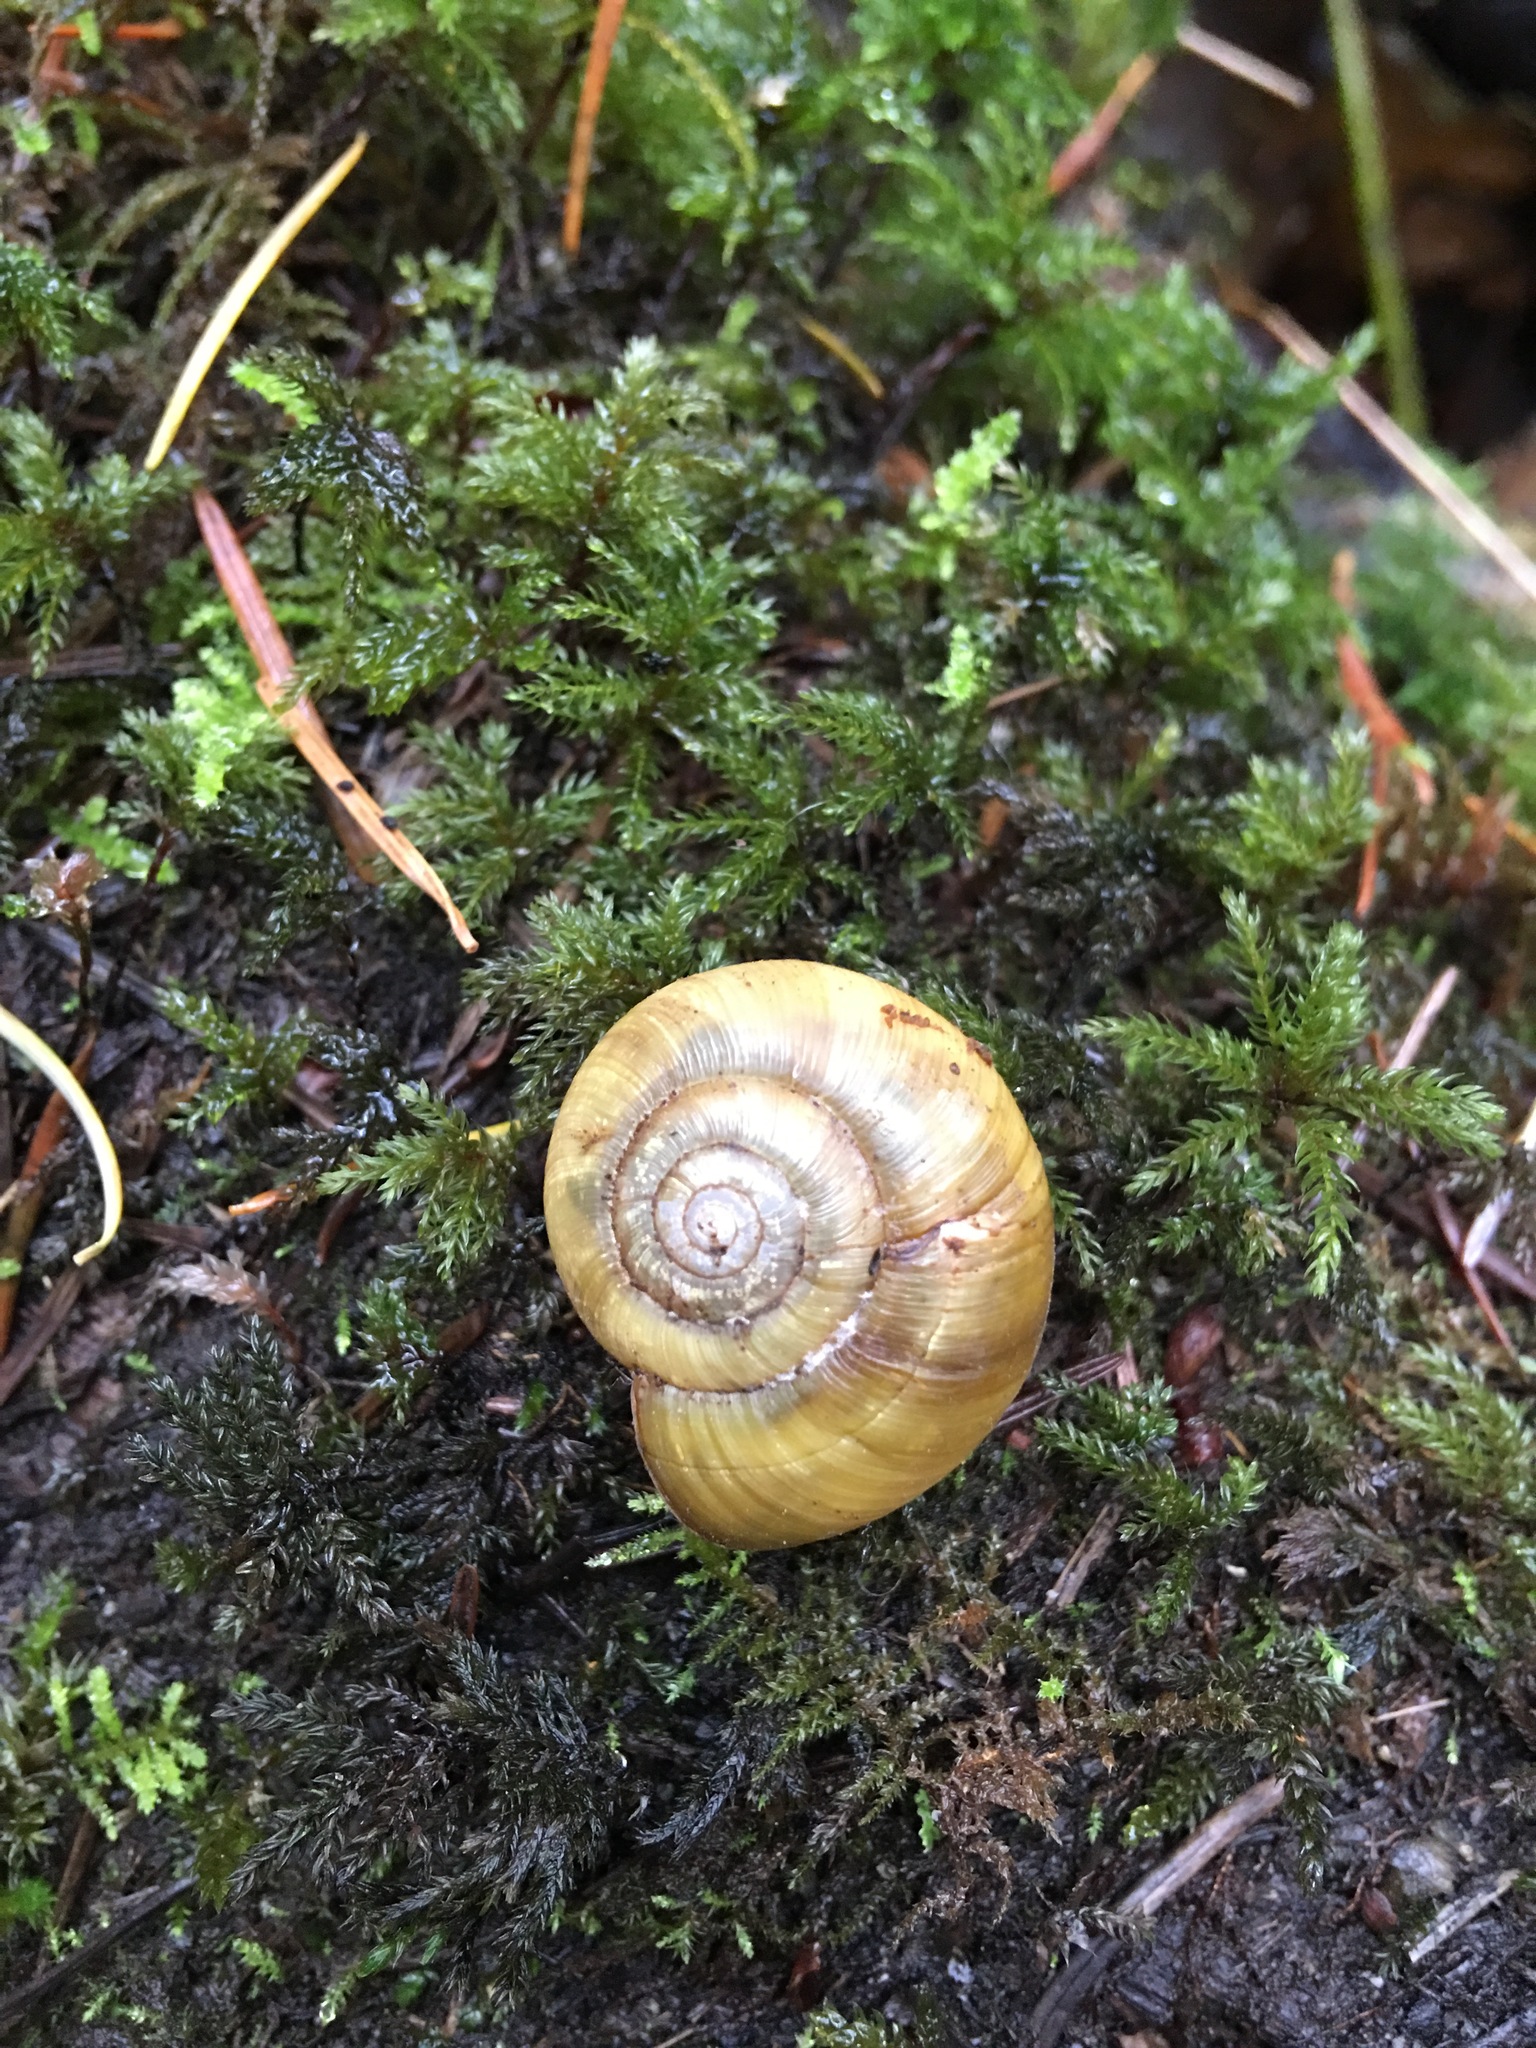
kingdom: Animalia
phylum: Mollusca
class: Gastropoda
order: Stylommatophora
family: Haplotrematidae
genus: Haplotrema
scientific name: Haplotrema vancouverense
